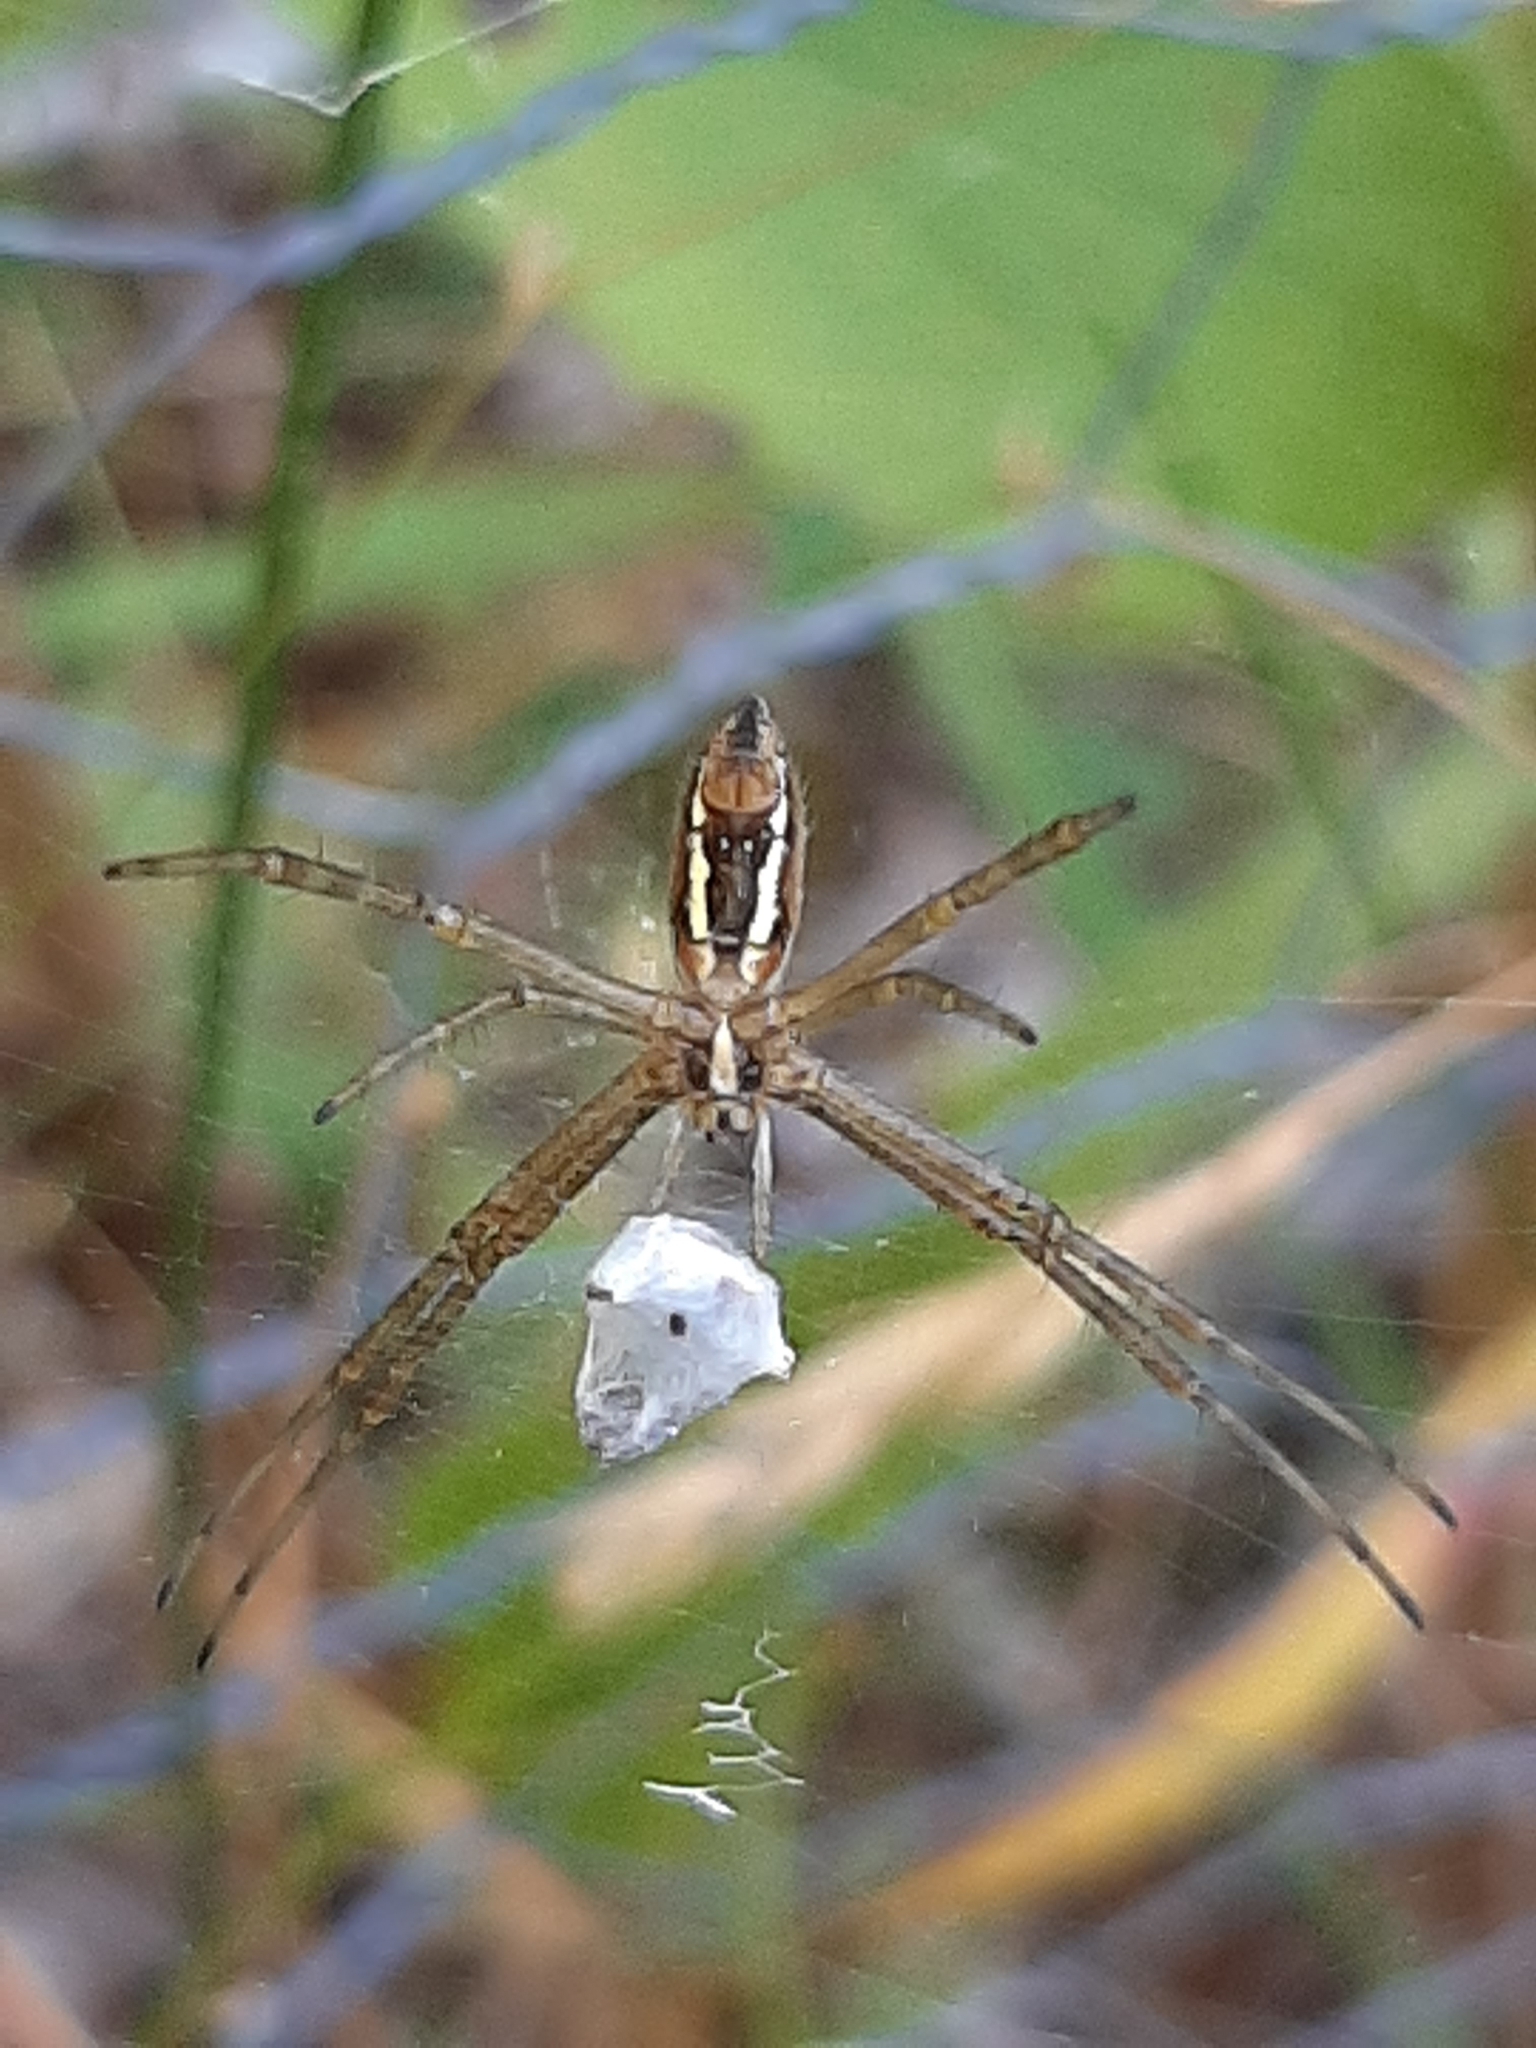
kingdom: Animalia
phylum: Arthropoda
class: Arachnida
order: Araneae
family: Araneidae
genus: Argiope
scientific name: Argiope trifasciata
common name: Banded garden spider
